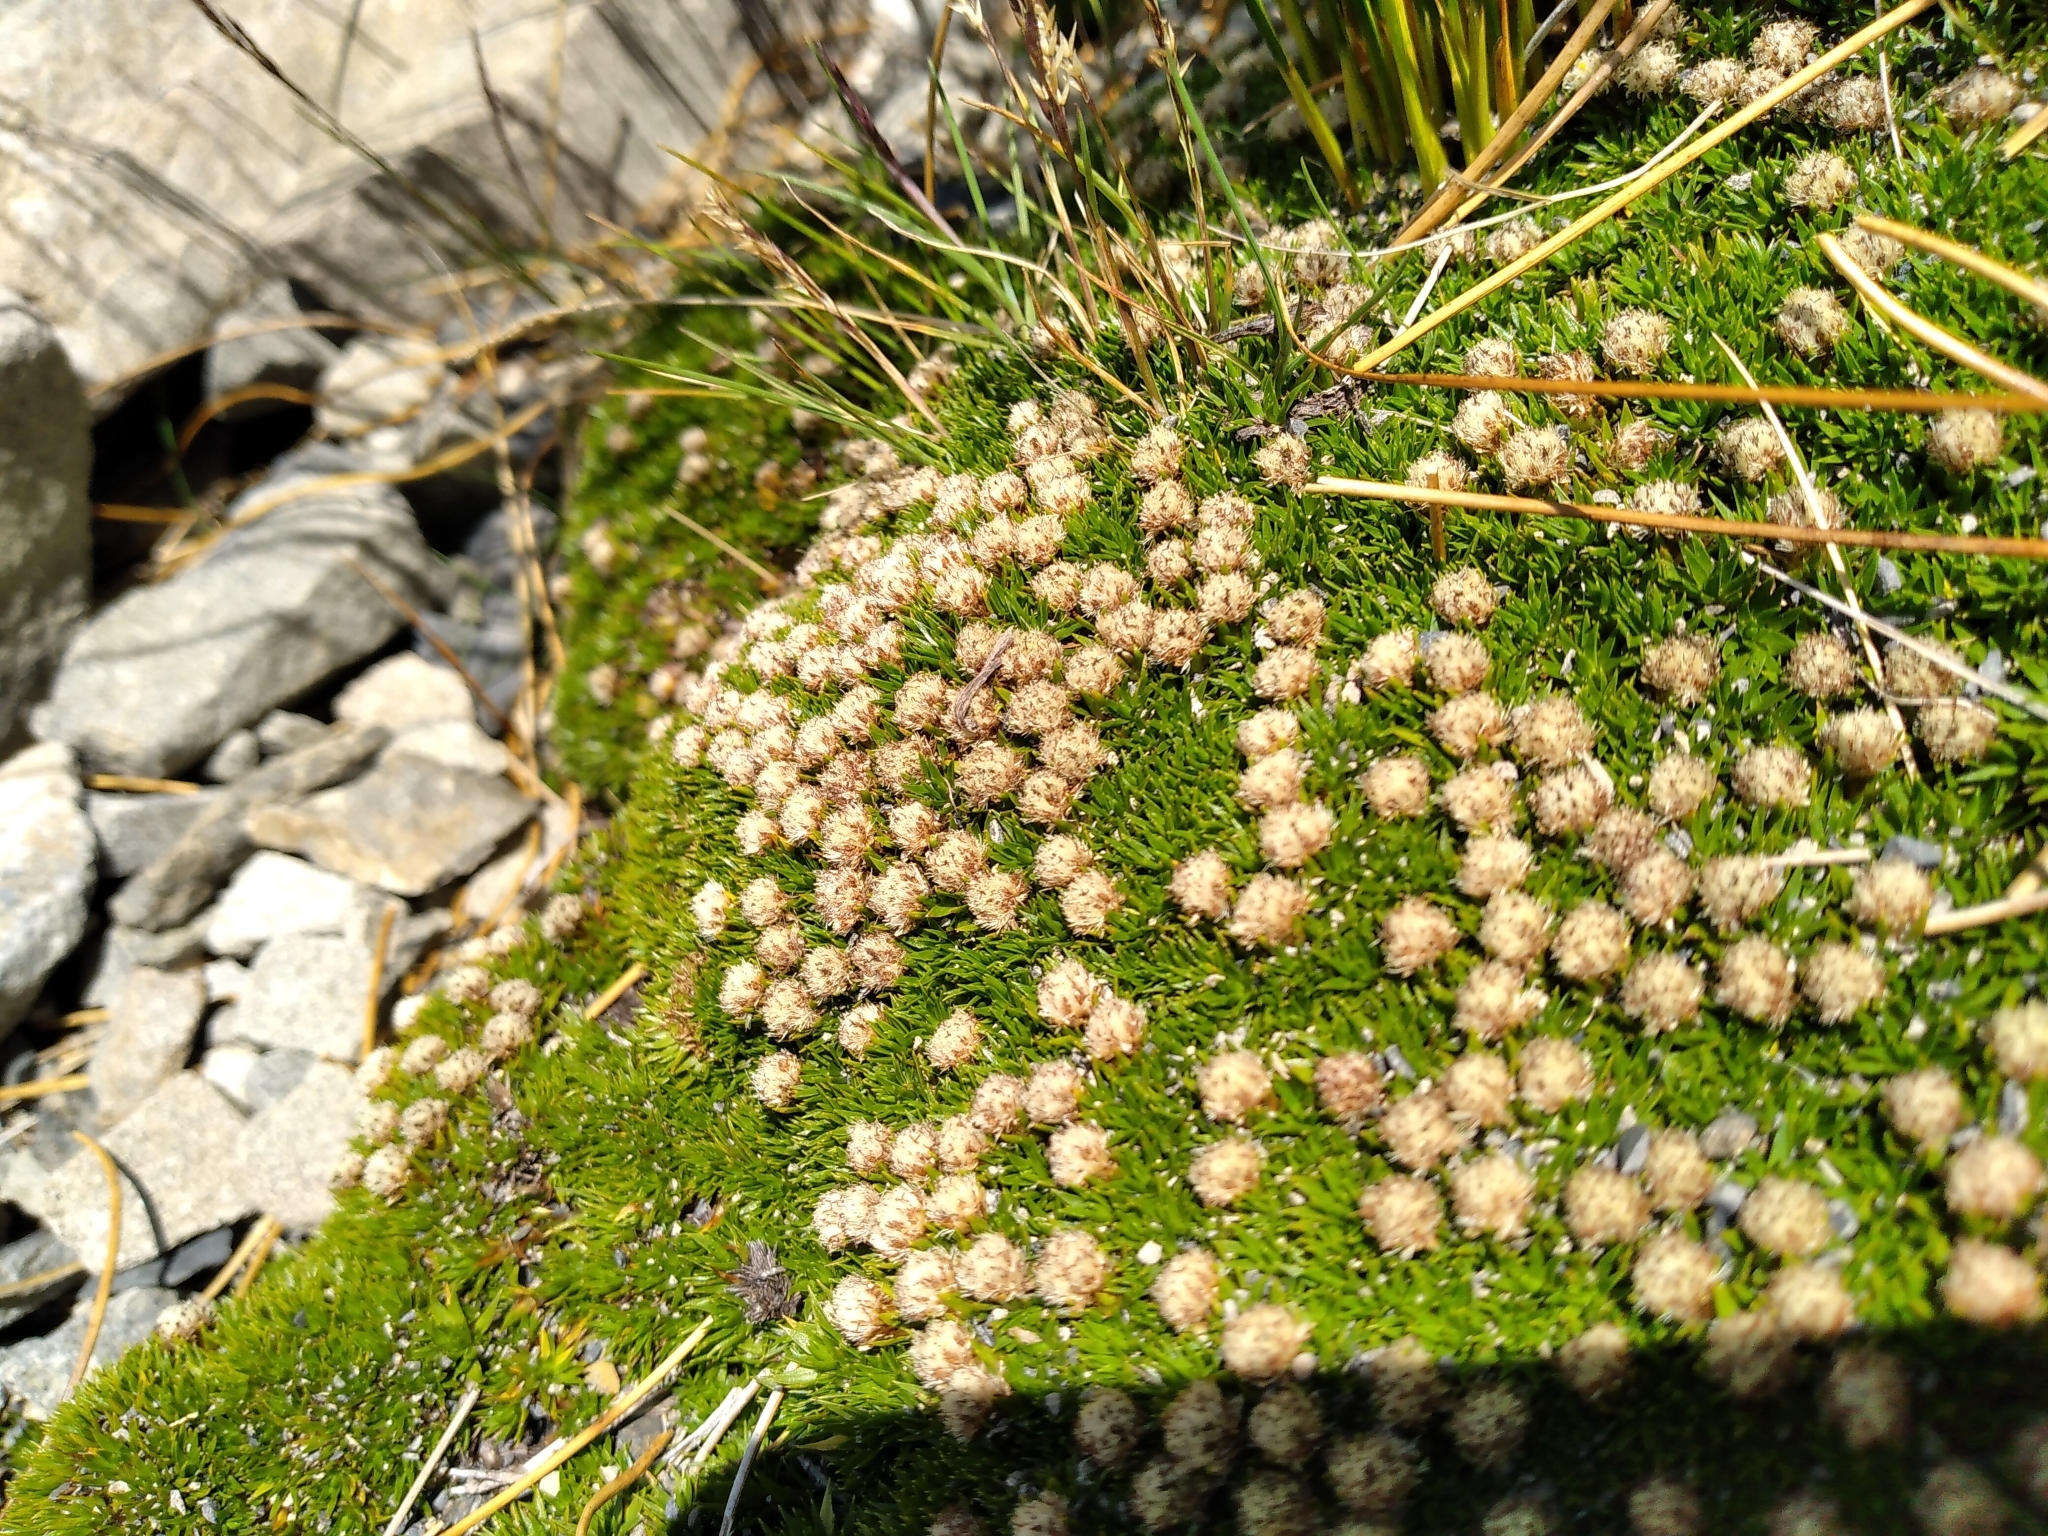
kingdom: Plantae
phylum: Tracheophyta
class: Magnoliopsida
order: Asterales
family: Asteraceae
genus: Raoulia
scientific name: Raoulia subulata
